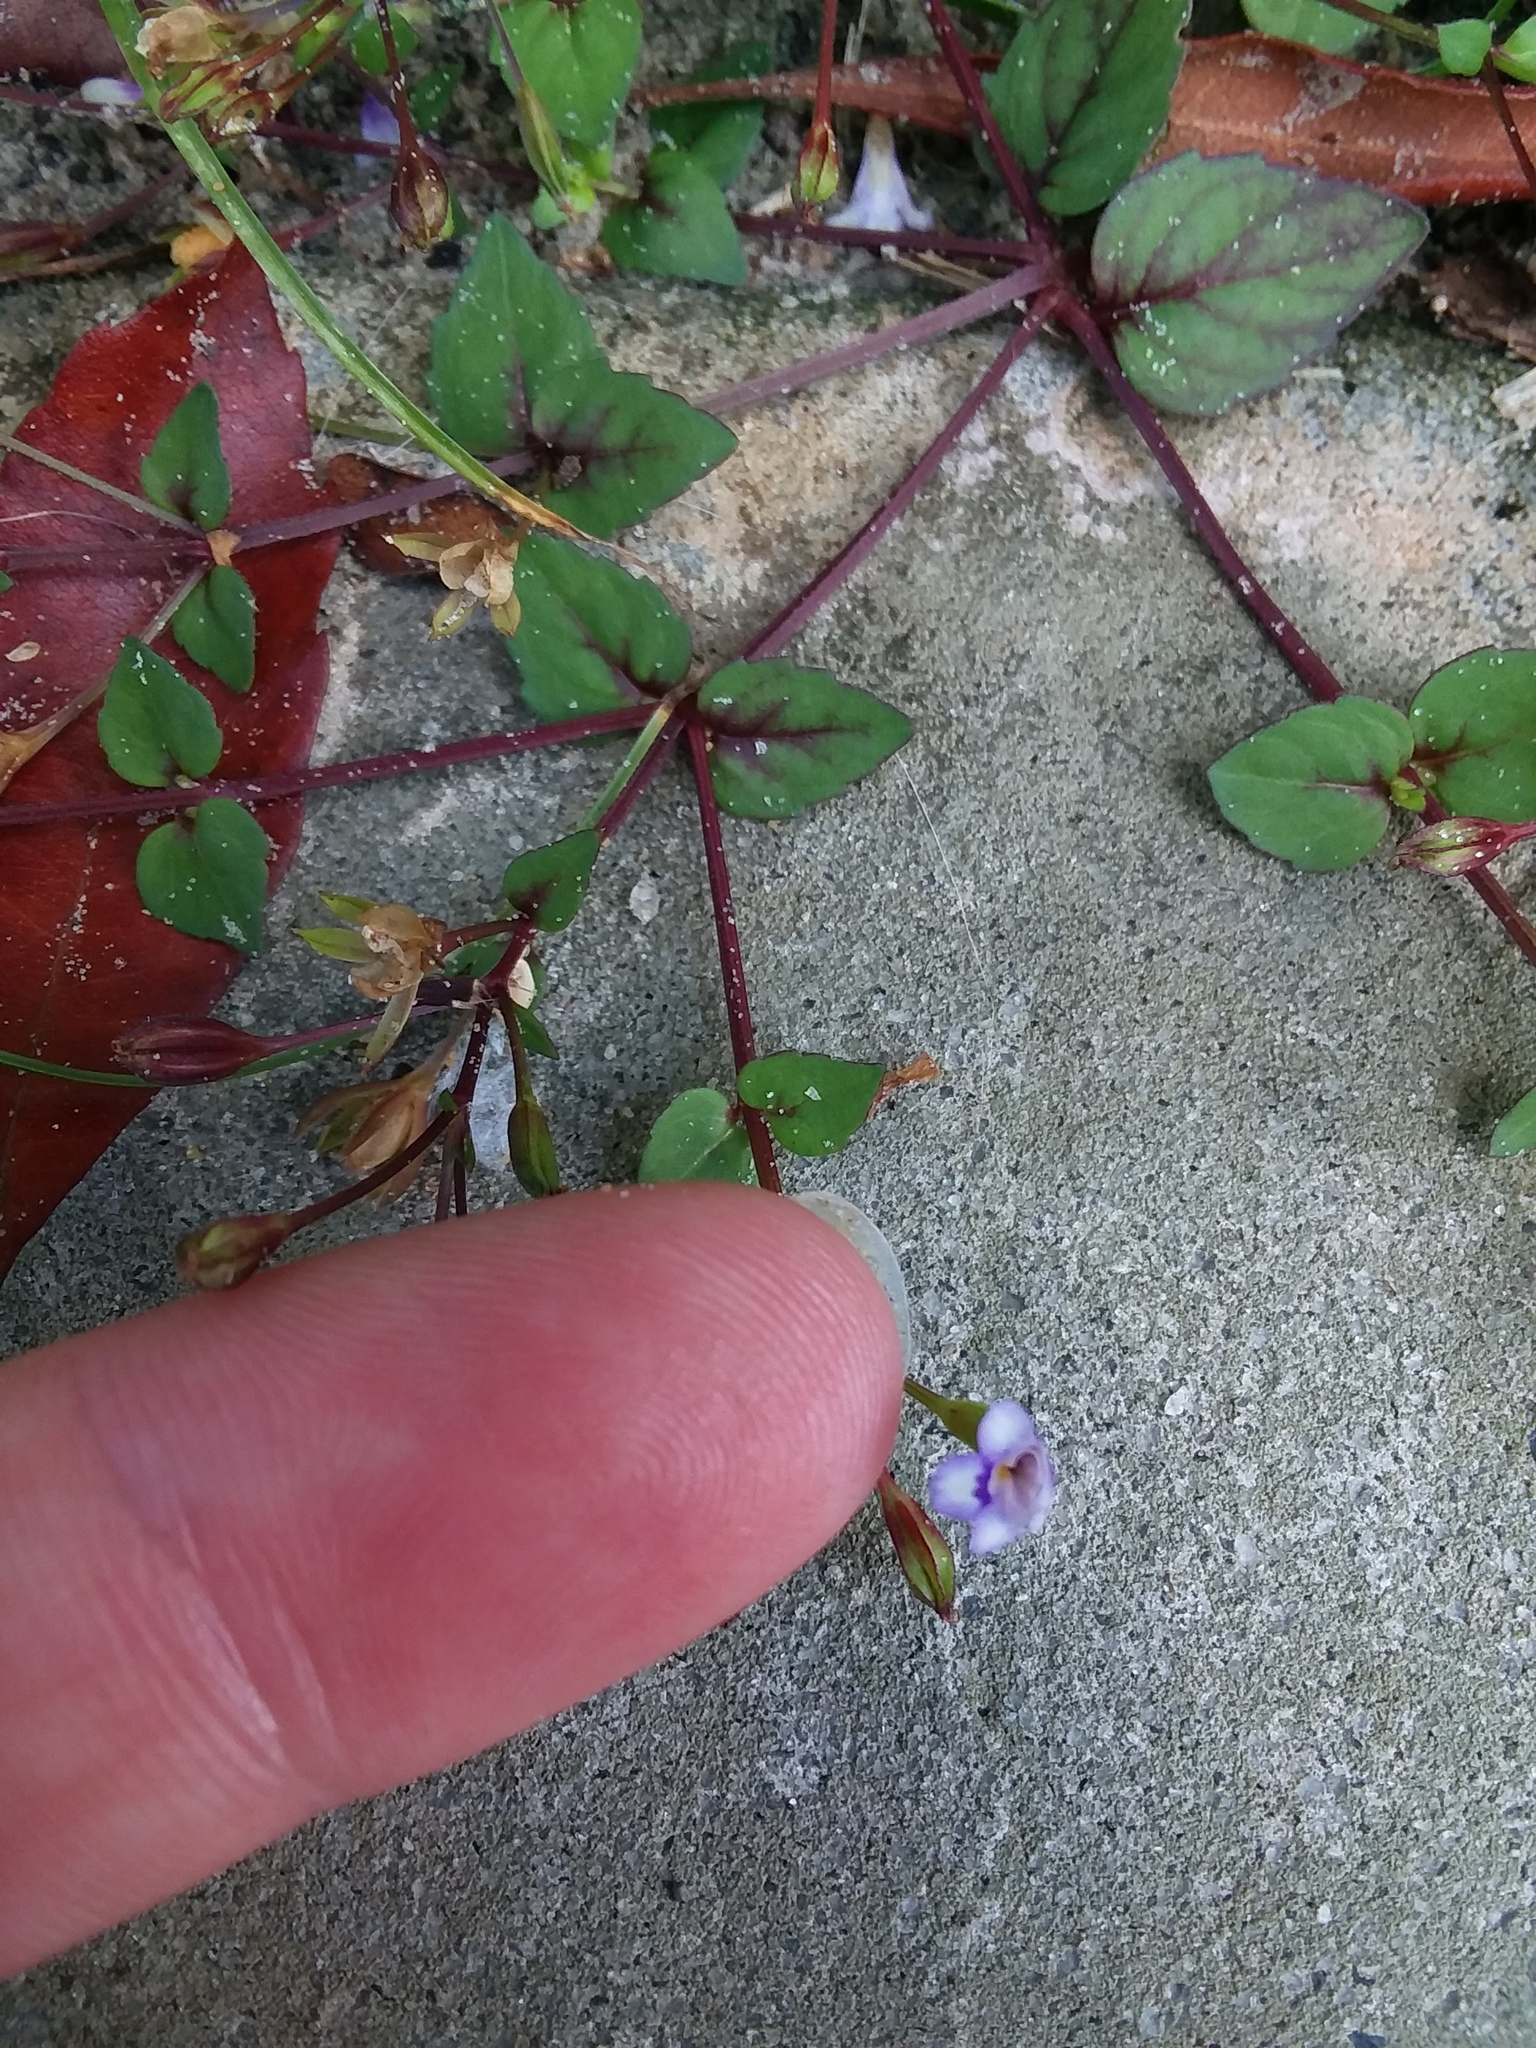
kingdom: Plantae
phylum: Tracheophyta
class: Magnoliopsida
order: Lamiales
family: Linderniaceae
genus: Torenia
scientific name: Torenia crustacea
